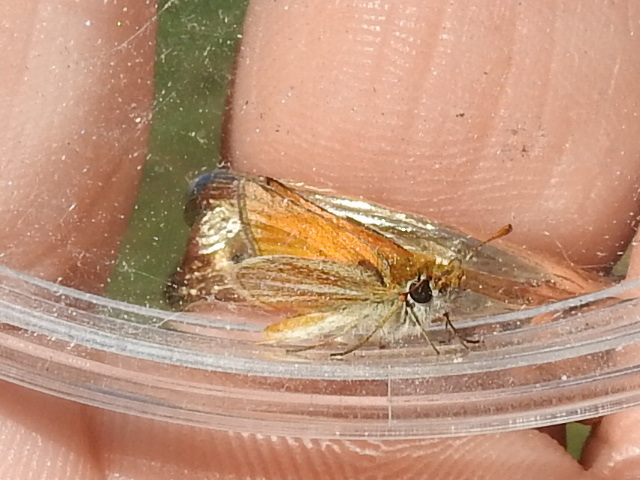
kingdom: Animalia
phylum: Arthropoda
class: Insecta
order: Lepidoptera
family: Hesperiidae
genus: Copaeodes
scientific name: Copaeodes minima
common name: Southern skipperling
